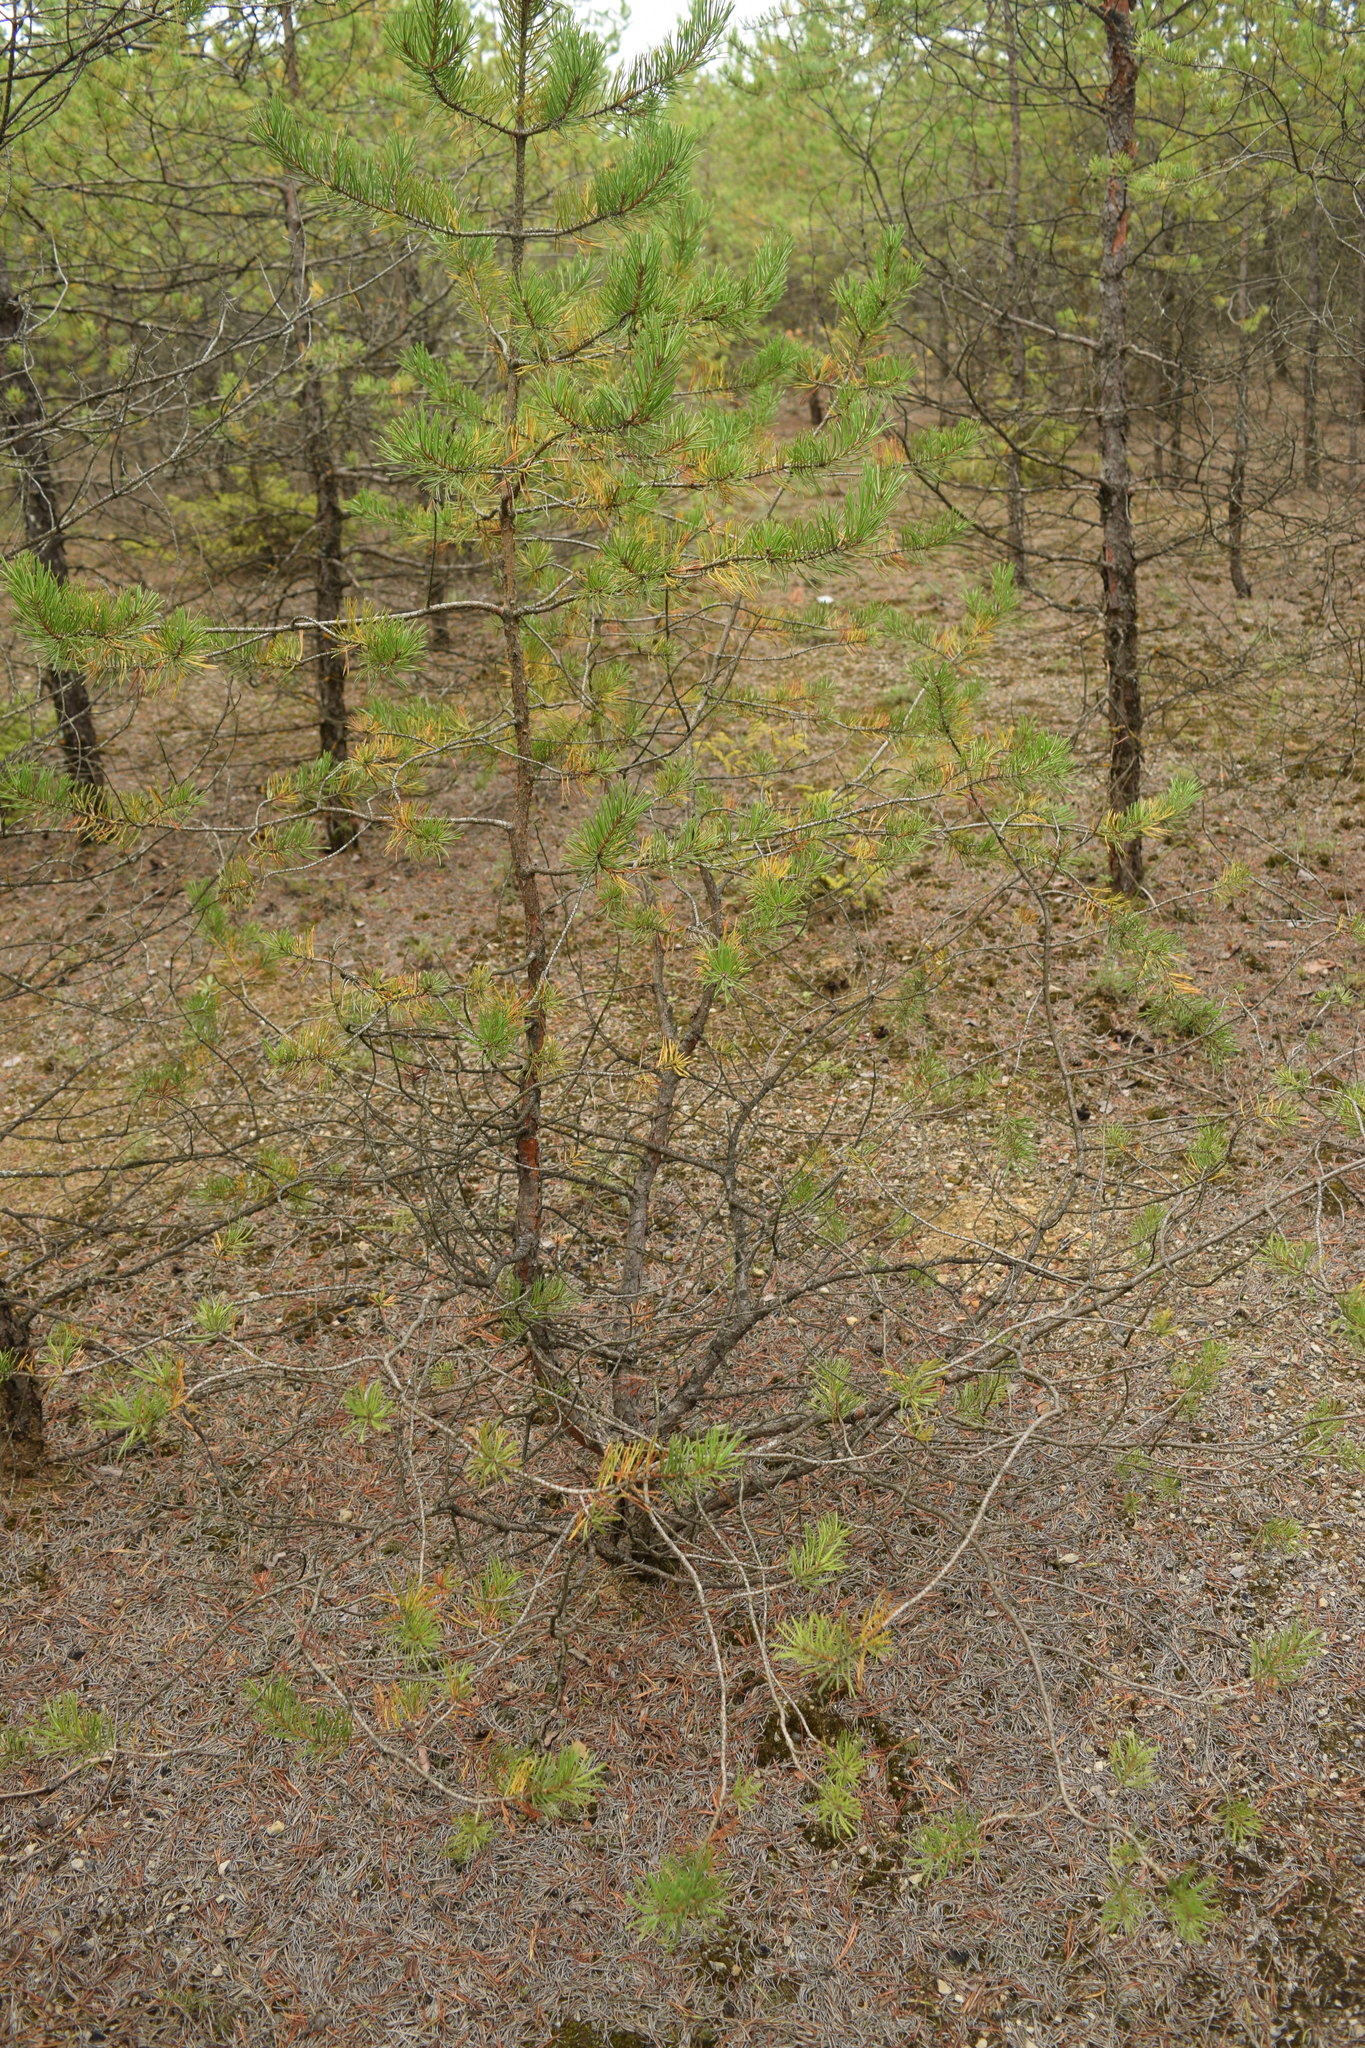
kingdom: Plantae
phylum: Tracheophyta
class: Pinopsida
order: Pinales
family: Pinaceae
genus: Pinus
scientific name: Pinus sylvestris
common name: Scots pine
